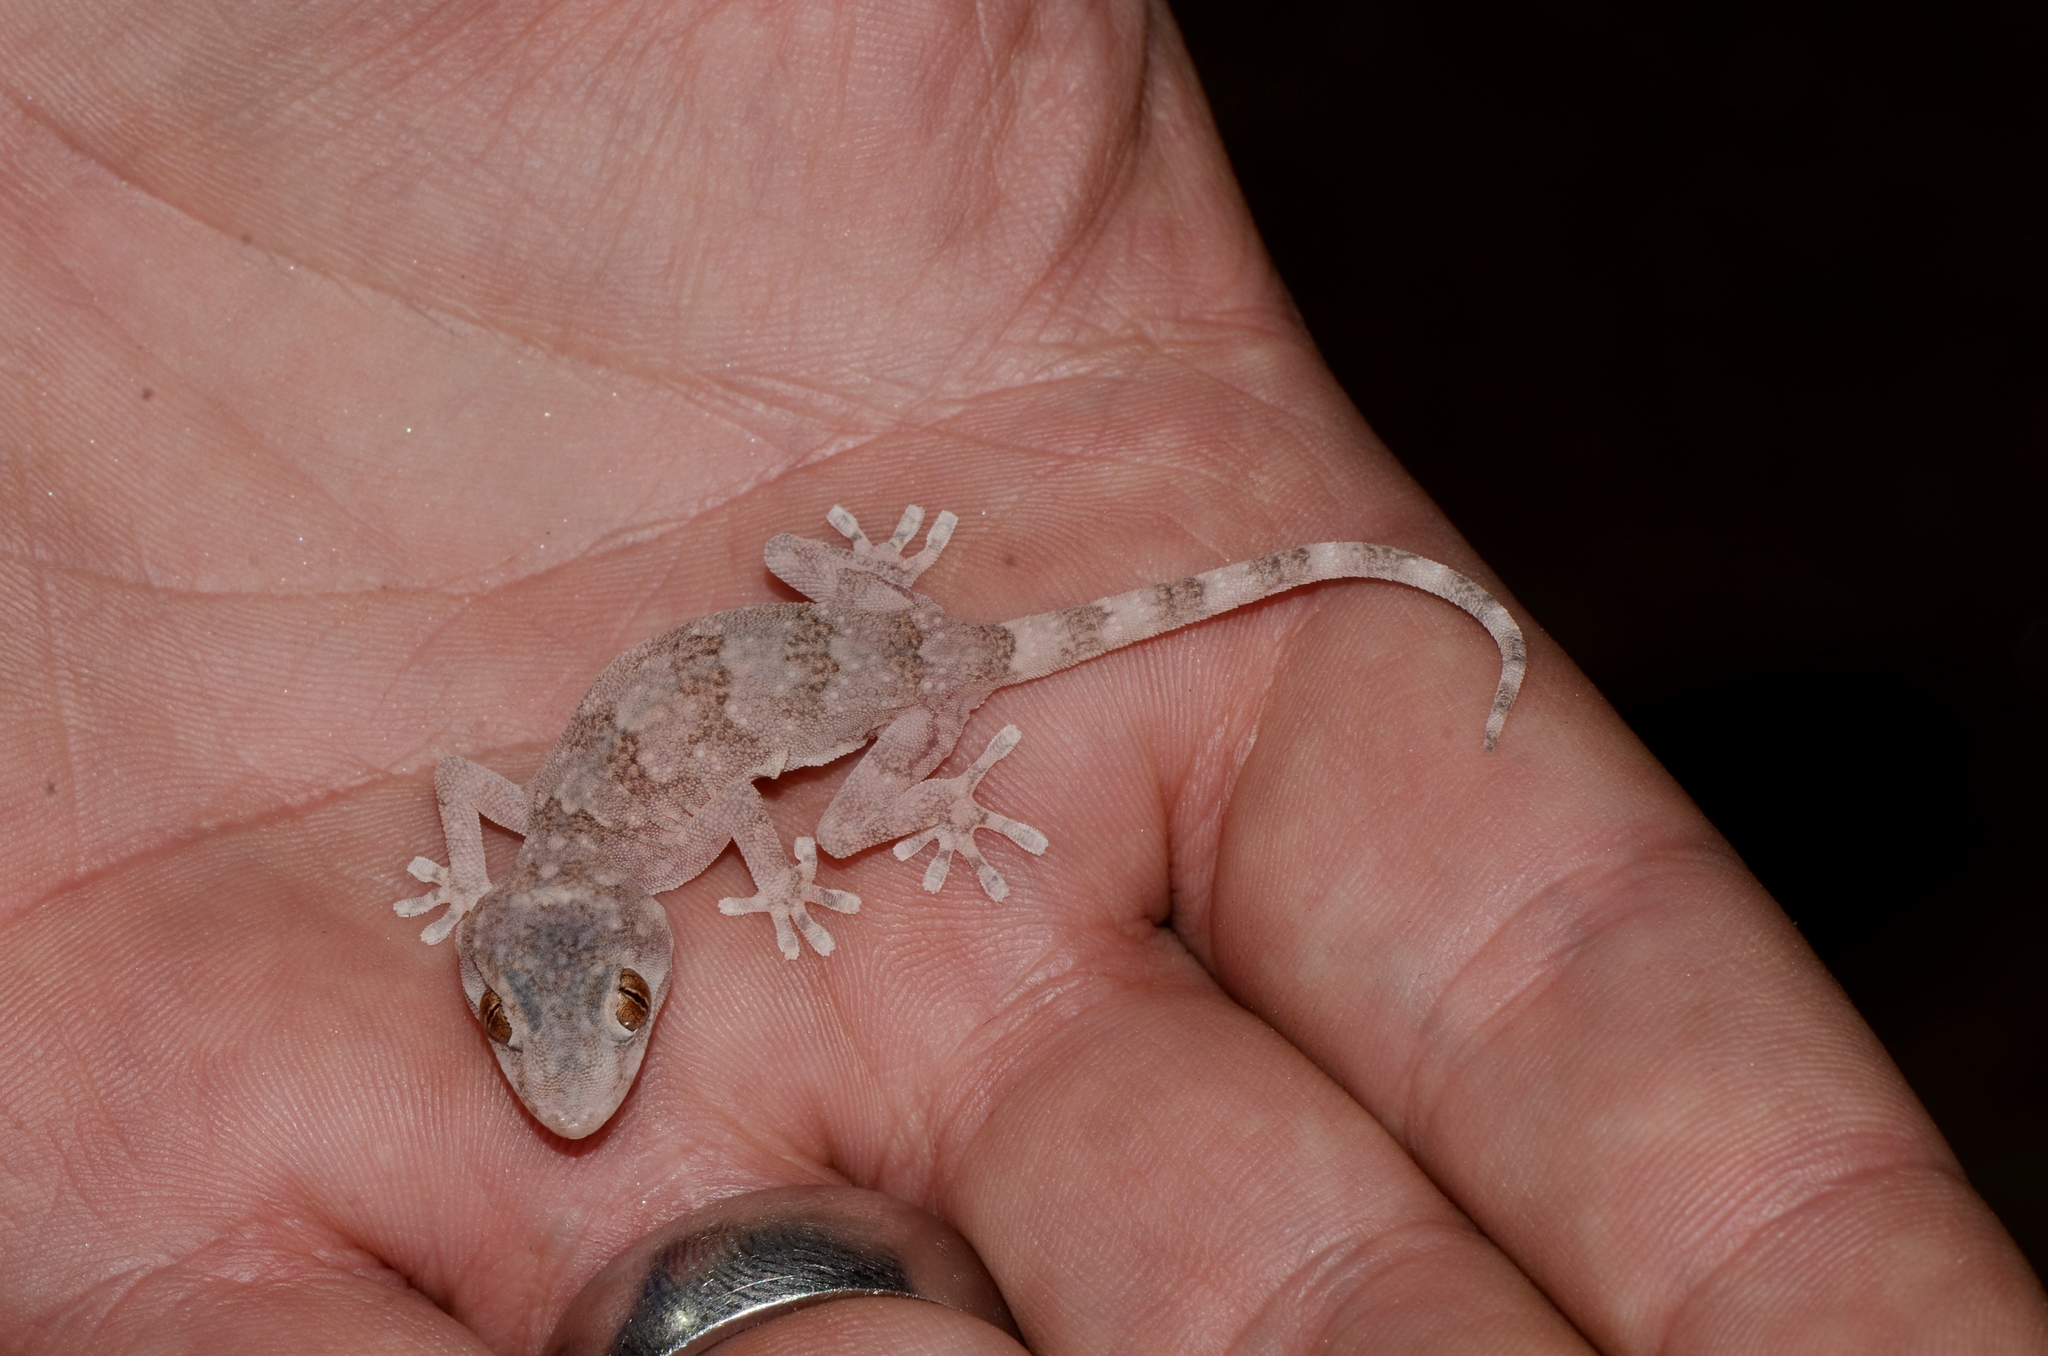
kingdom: Animalia
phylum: Chordata
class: Squamata
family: Gekkonidae
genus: Pachydactylus
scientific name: Pachydactylus haackei
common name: Haacke's gecko
